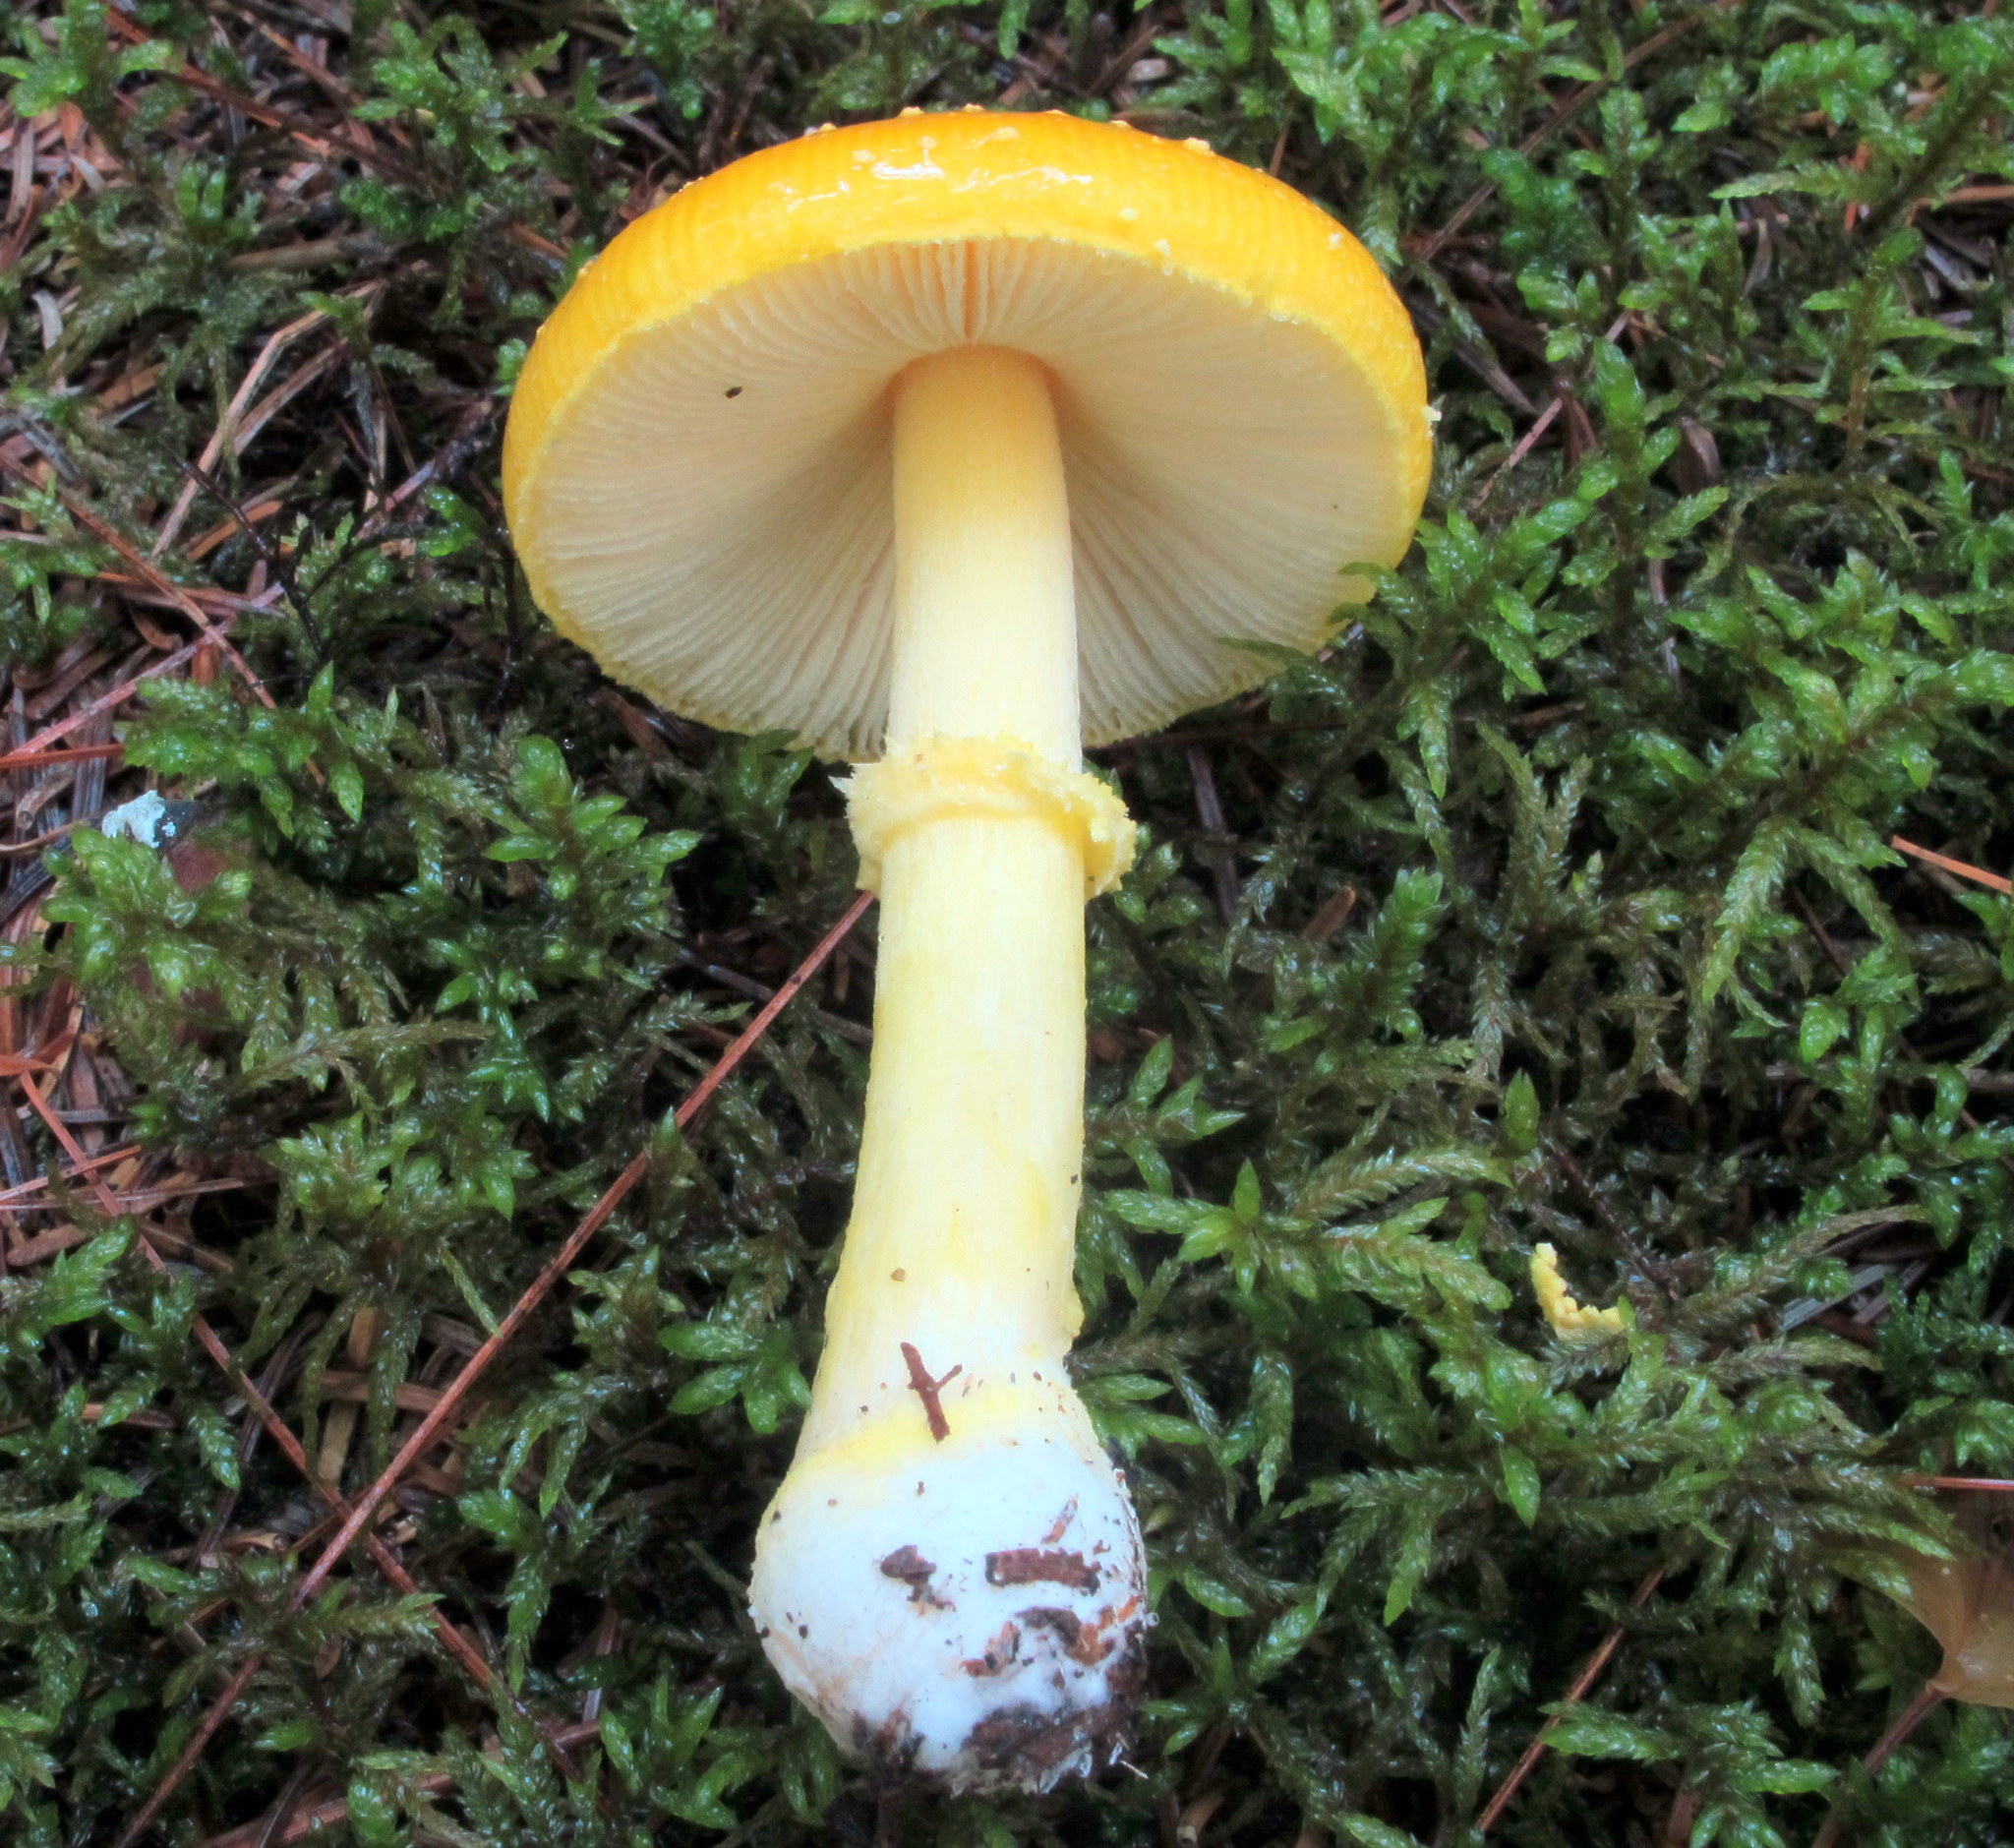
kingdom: Fungi
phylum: Basidiomycota
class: Agaricomycetes
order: Agaricales
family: Amanitaceae
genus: Amanita
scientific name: Amanita frostiana
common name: Frost's amanita
